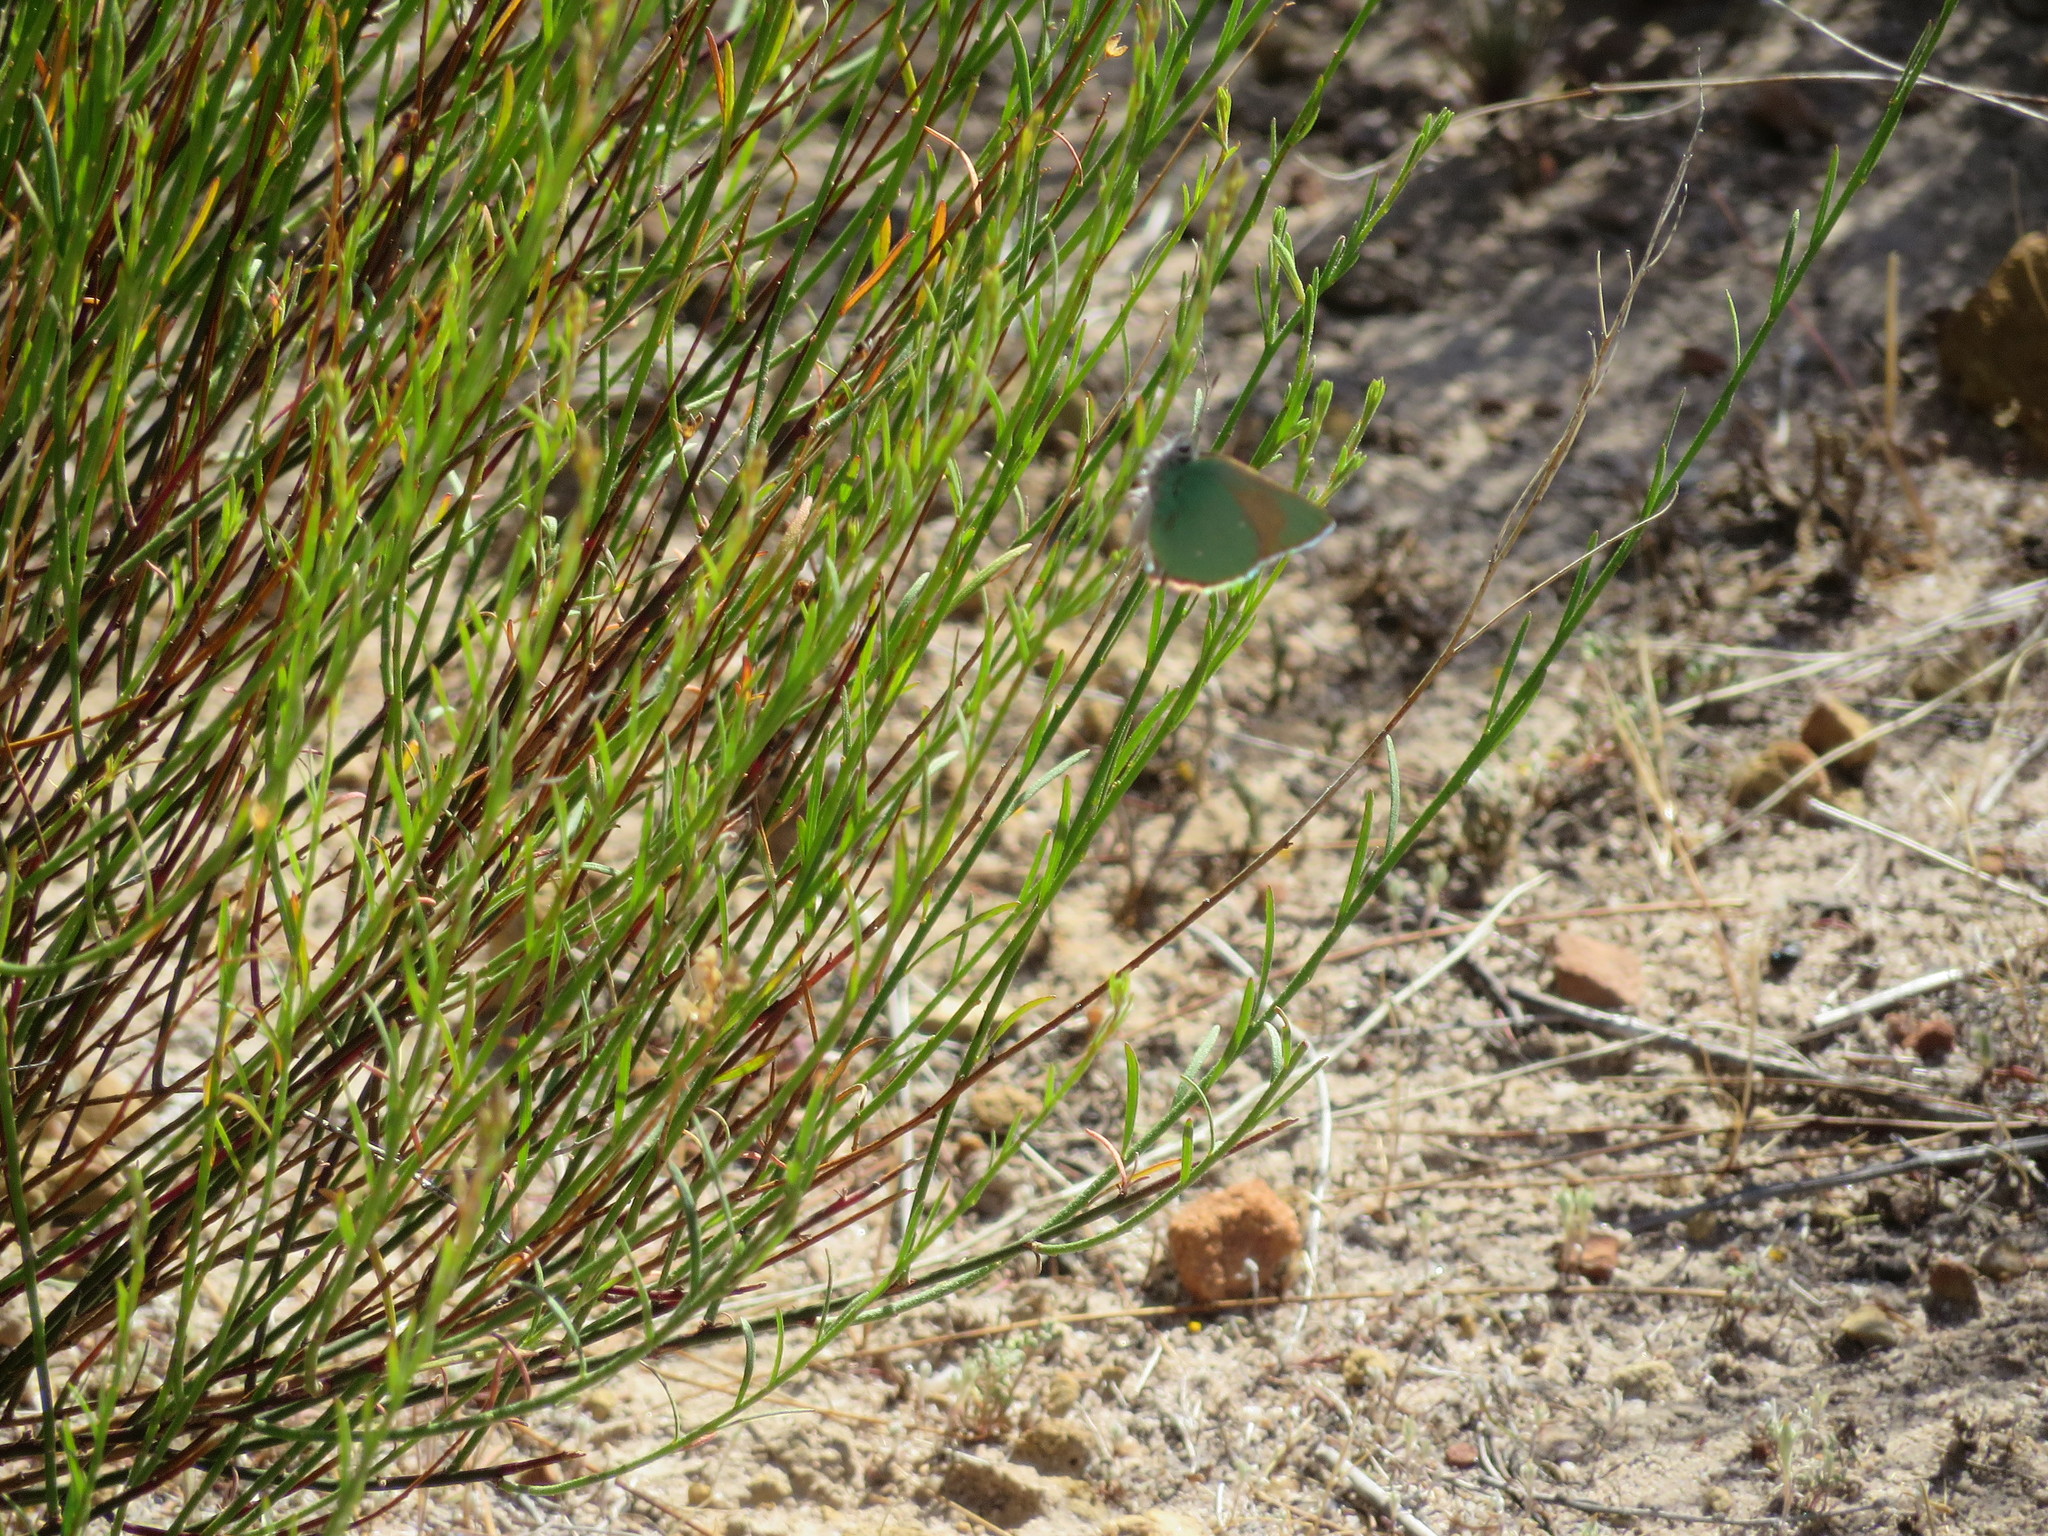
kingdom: Animalia
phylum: Arthropoda
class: Insecta
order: Lepidoptera
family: Lycaenidae
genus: Callophrys
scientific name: Callophrys dumetorum
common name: Bramble hairstreak
